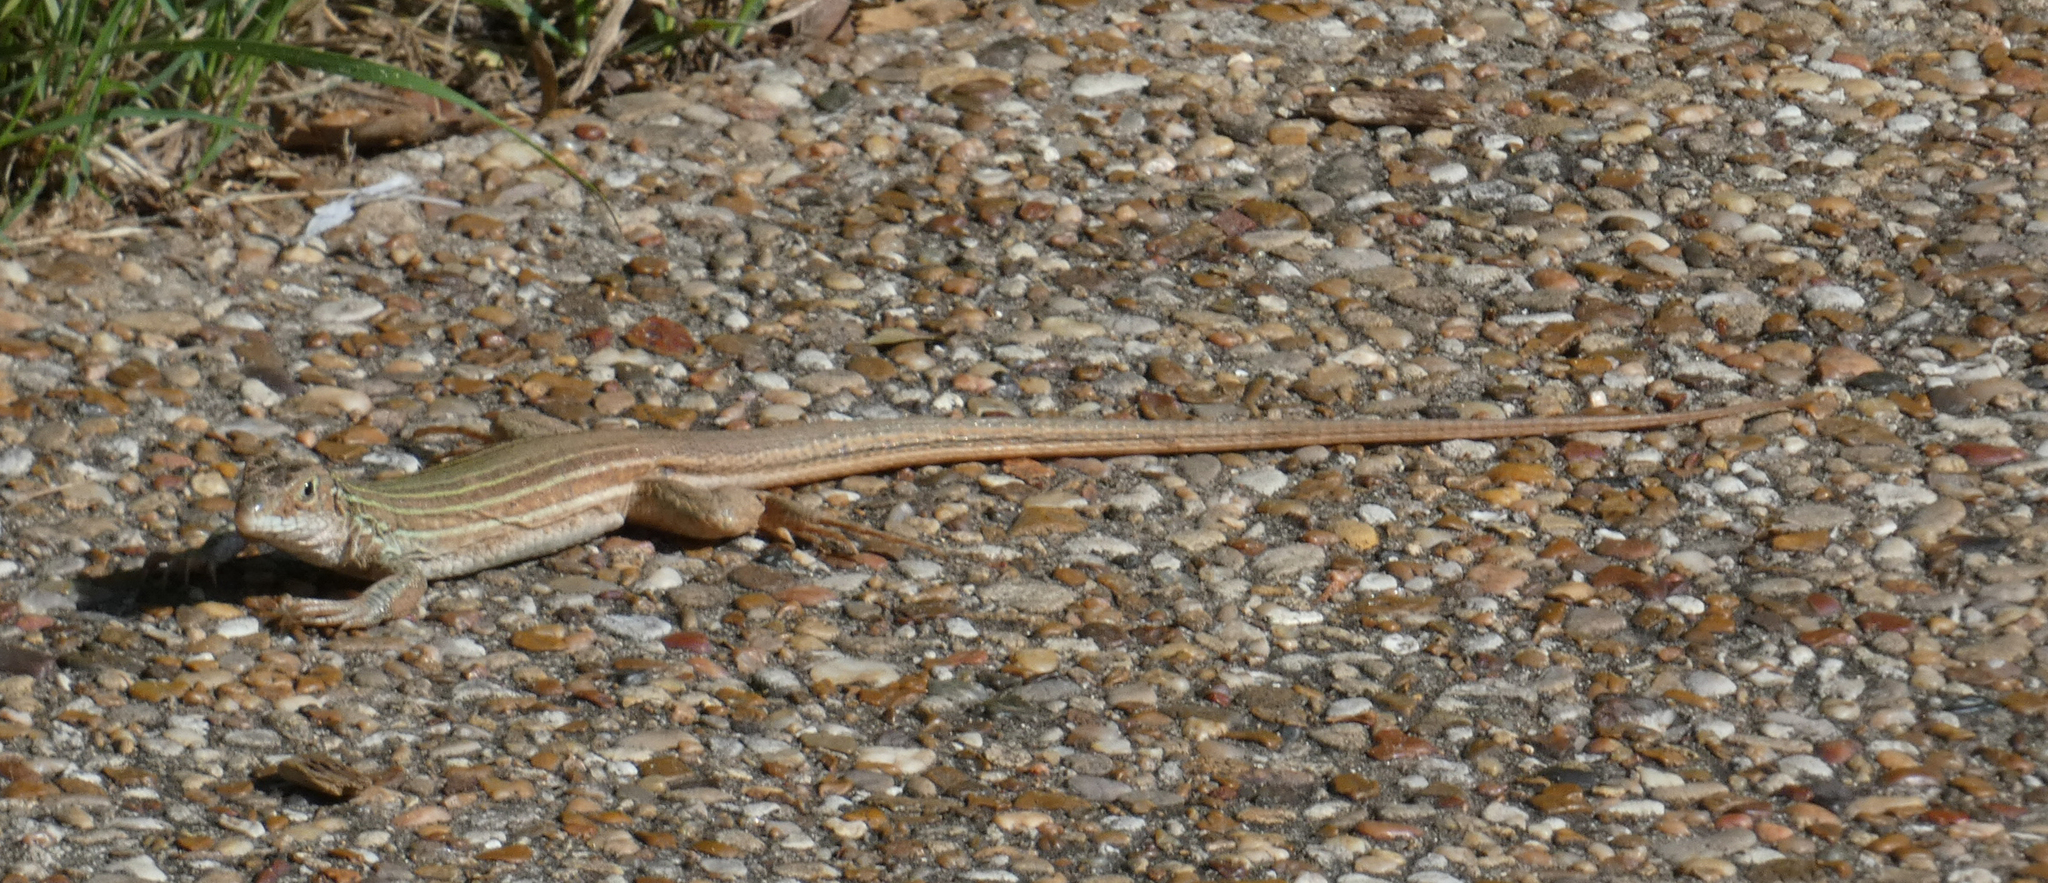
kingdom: Animalia
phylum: Chordata
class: Squamata
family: Teiidae
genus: Aspidoscelis
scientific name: Aspidoscelis gularis
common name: Eastern spotted whiptail
